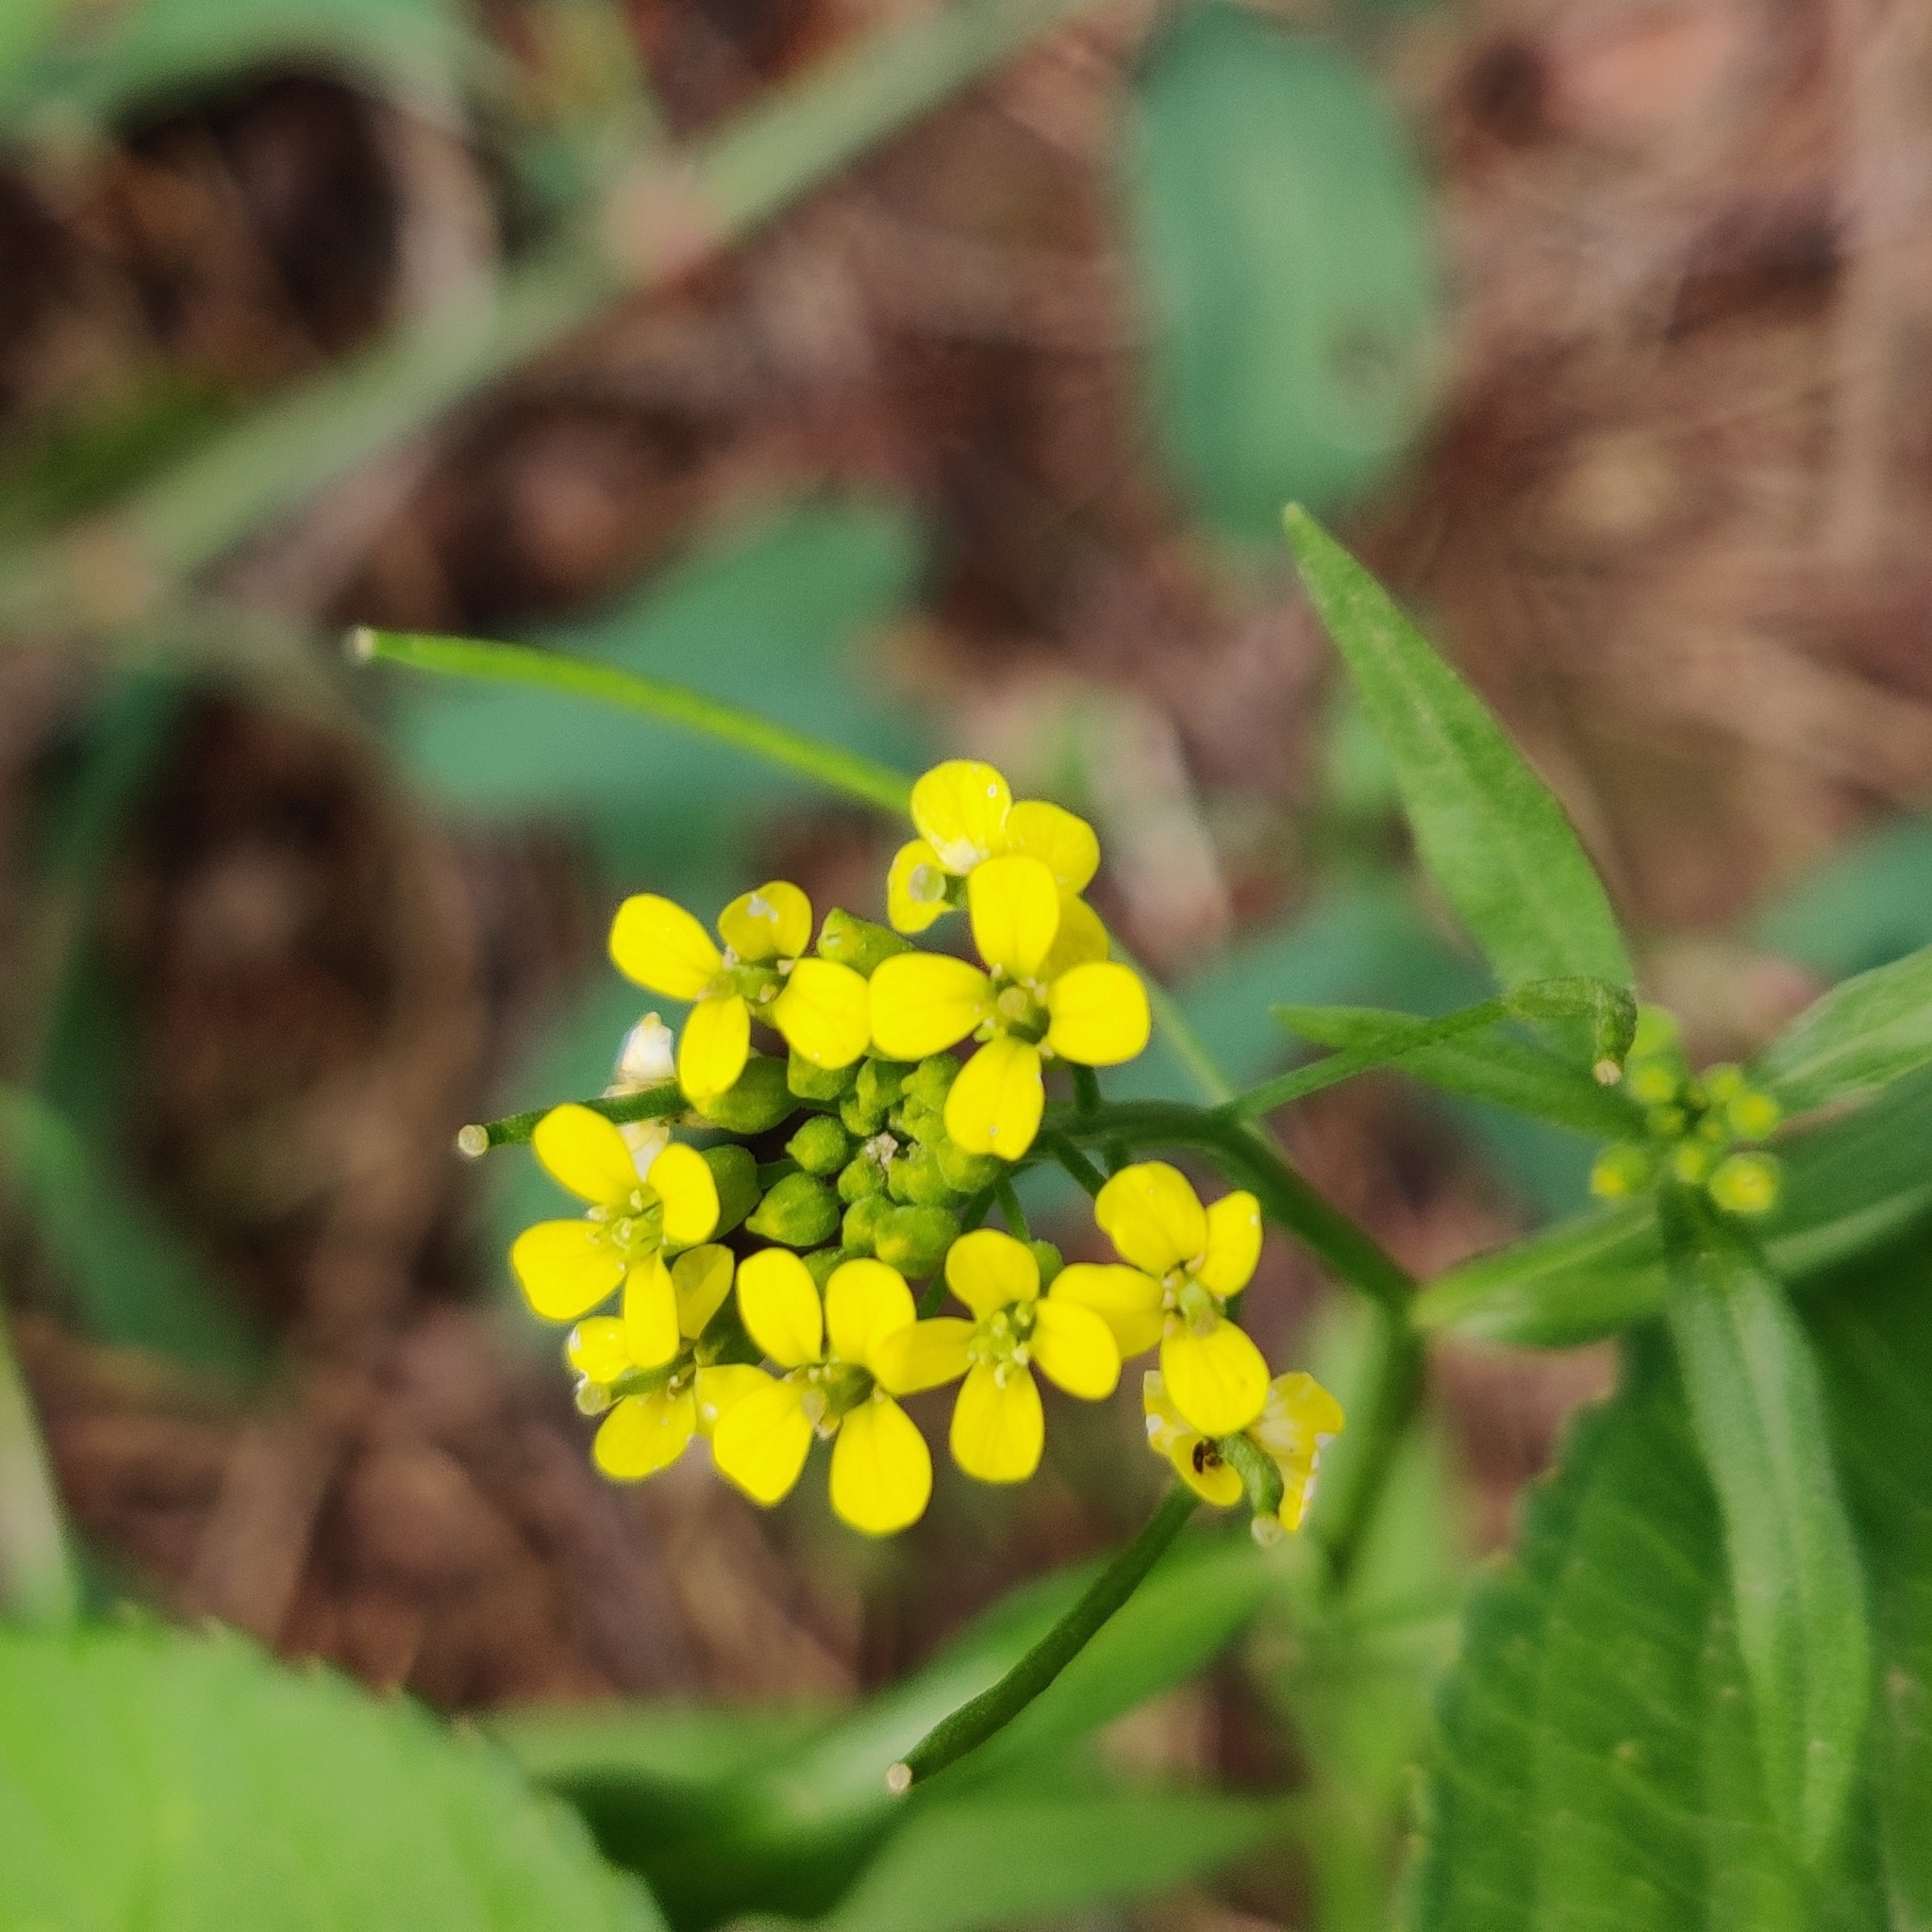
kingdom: Plantae
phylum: Tracheophyta
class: Magnoliopsida
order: Brassicales
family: Brassicaceae
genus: Erysimum
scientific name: Erysimum cheiranthoides
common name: Treacle mustard
